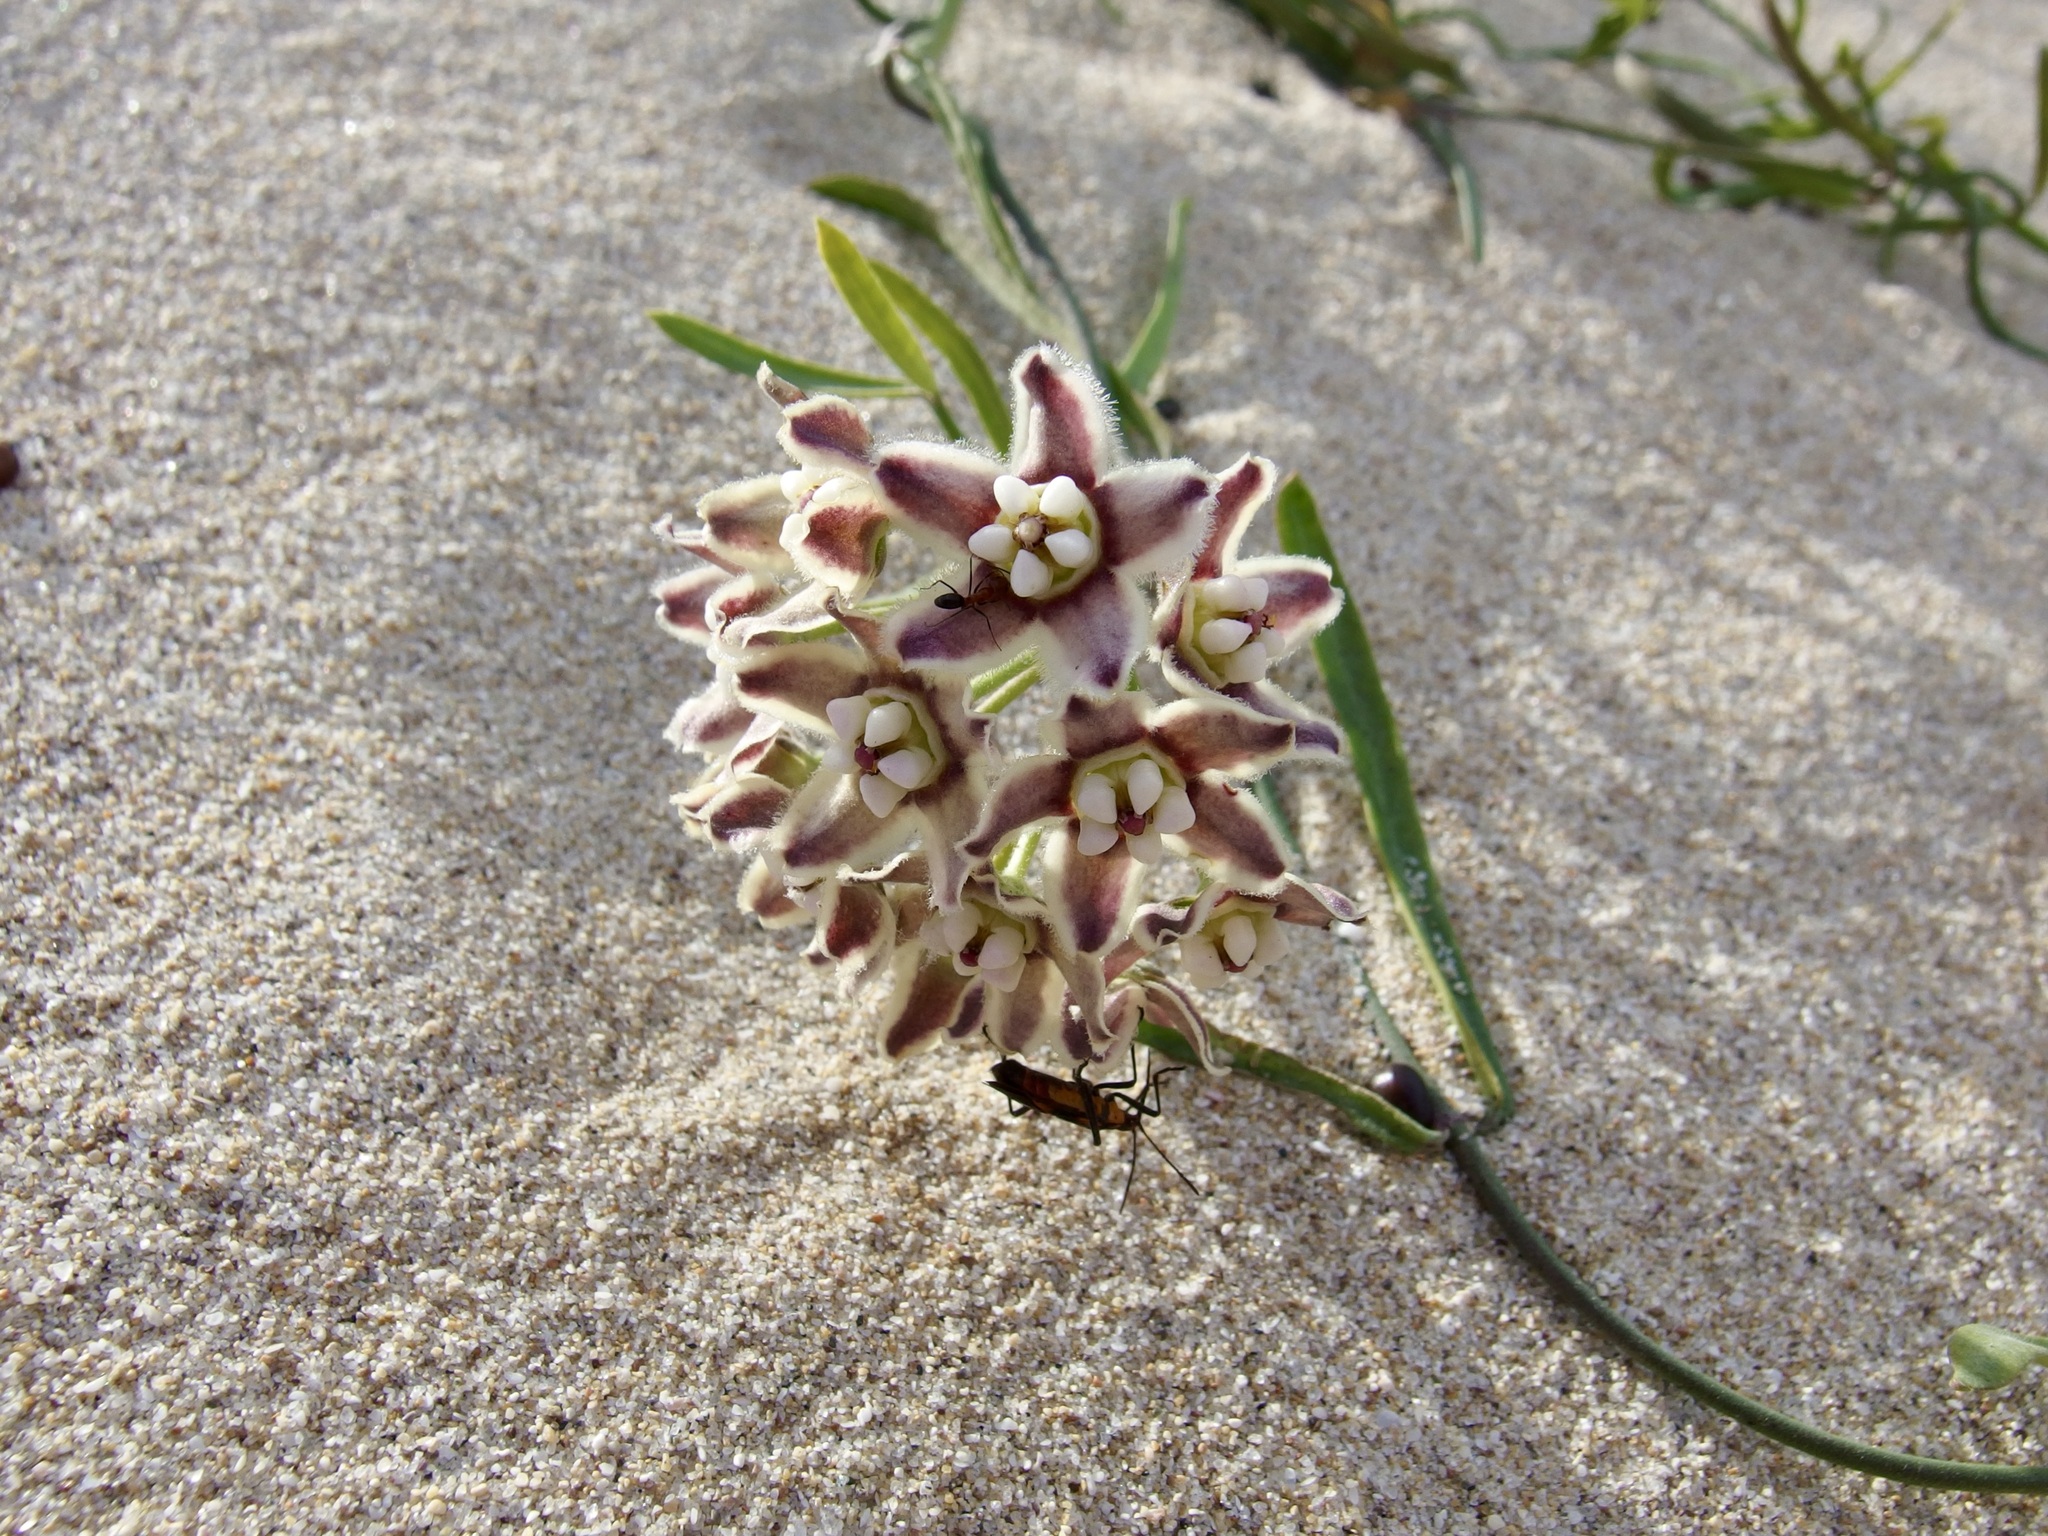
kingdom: Plantae
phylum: Tracheophyta
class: Magnoliopsida
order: Gentianales
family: Apocynaceae
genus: Funastrum
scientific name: Funastrum heterophyllum
